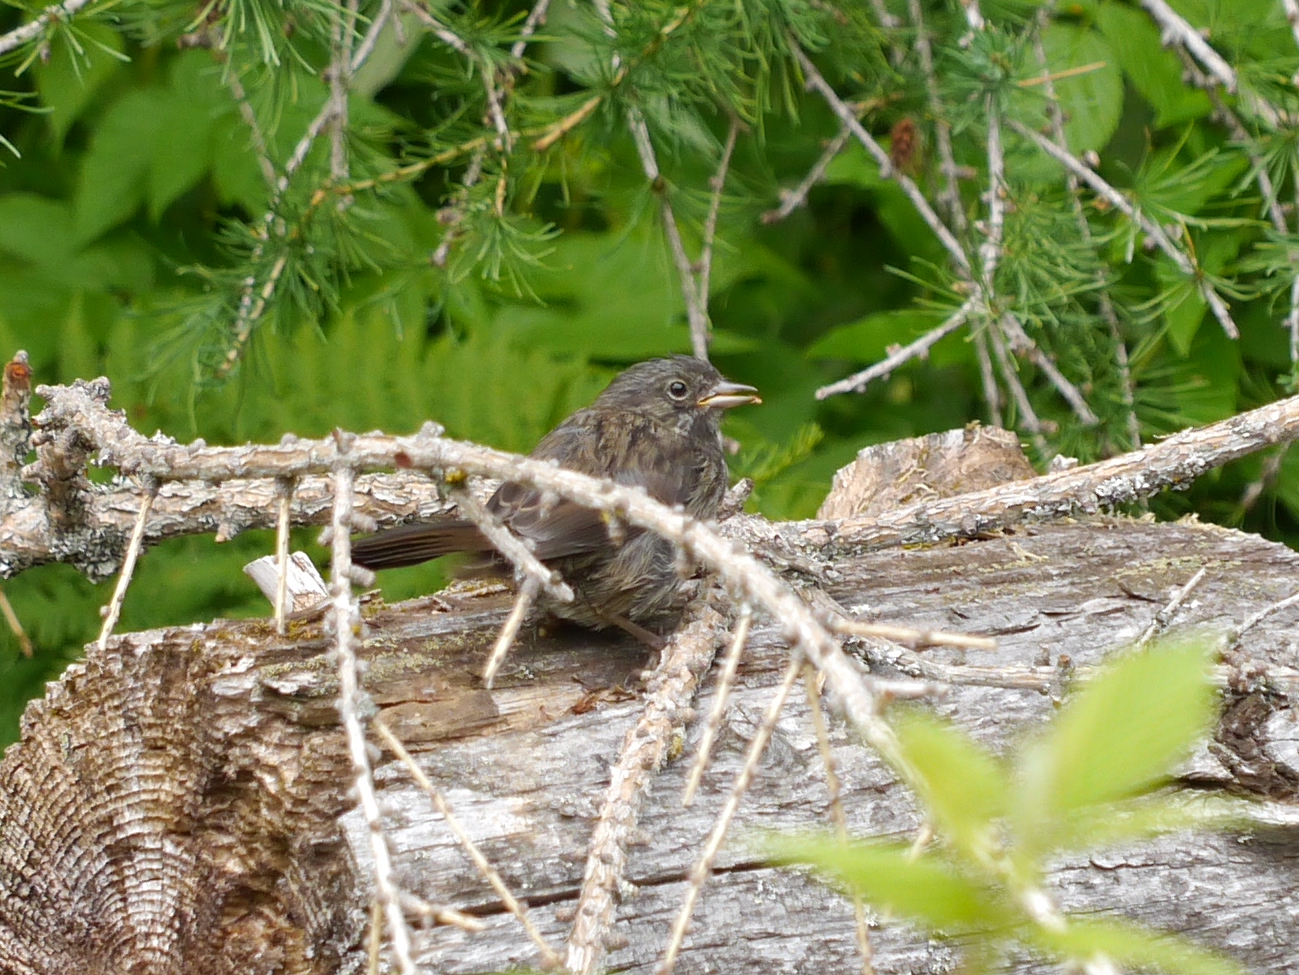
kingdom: Animalia
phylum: Chordata
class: Aves
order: Passeriformes
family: Passerellidae
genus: Melospiza
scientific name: Melospiza melodia
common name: Song sparrow
